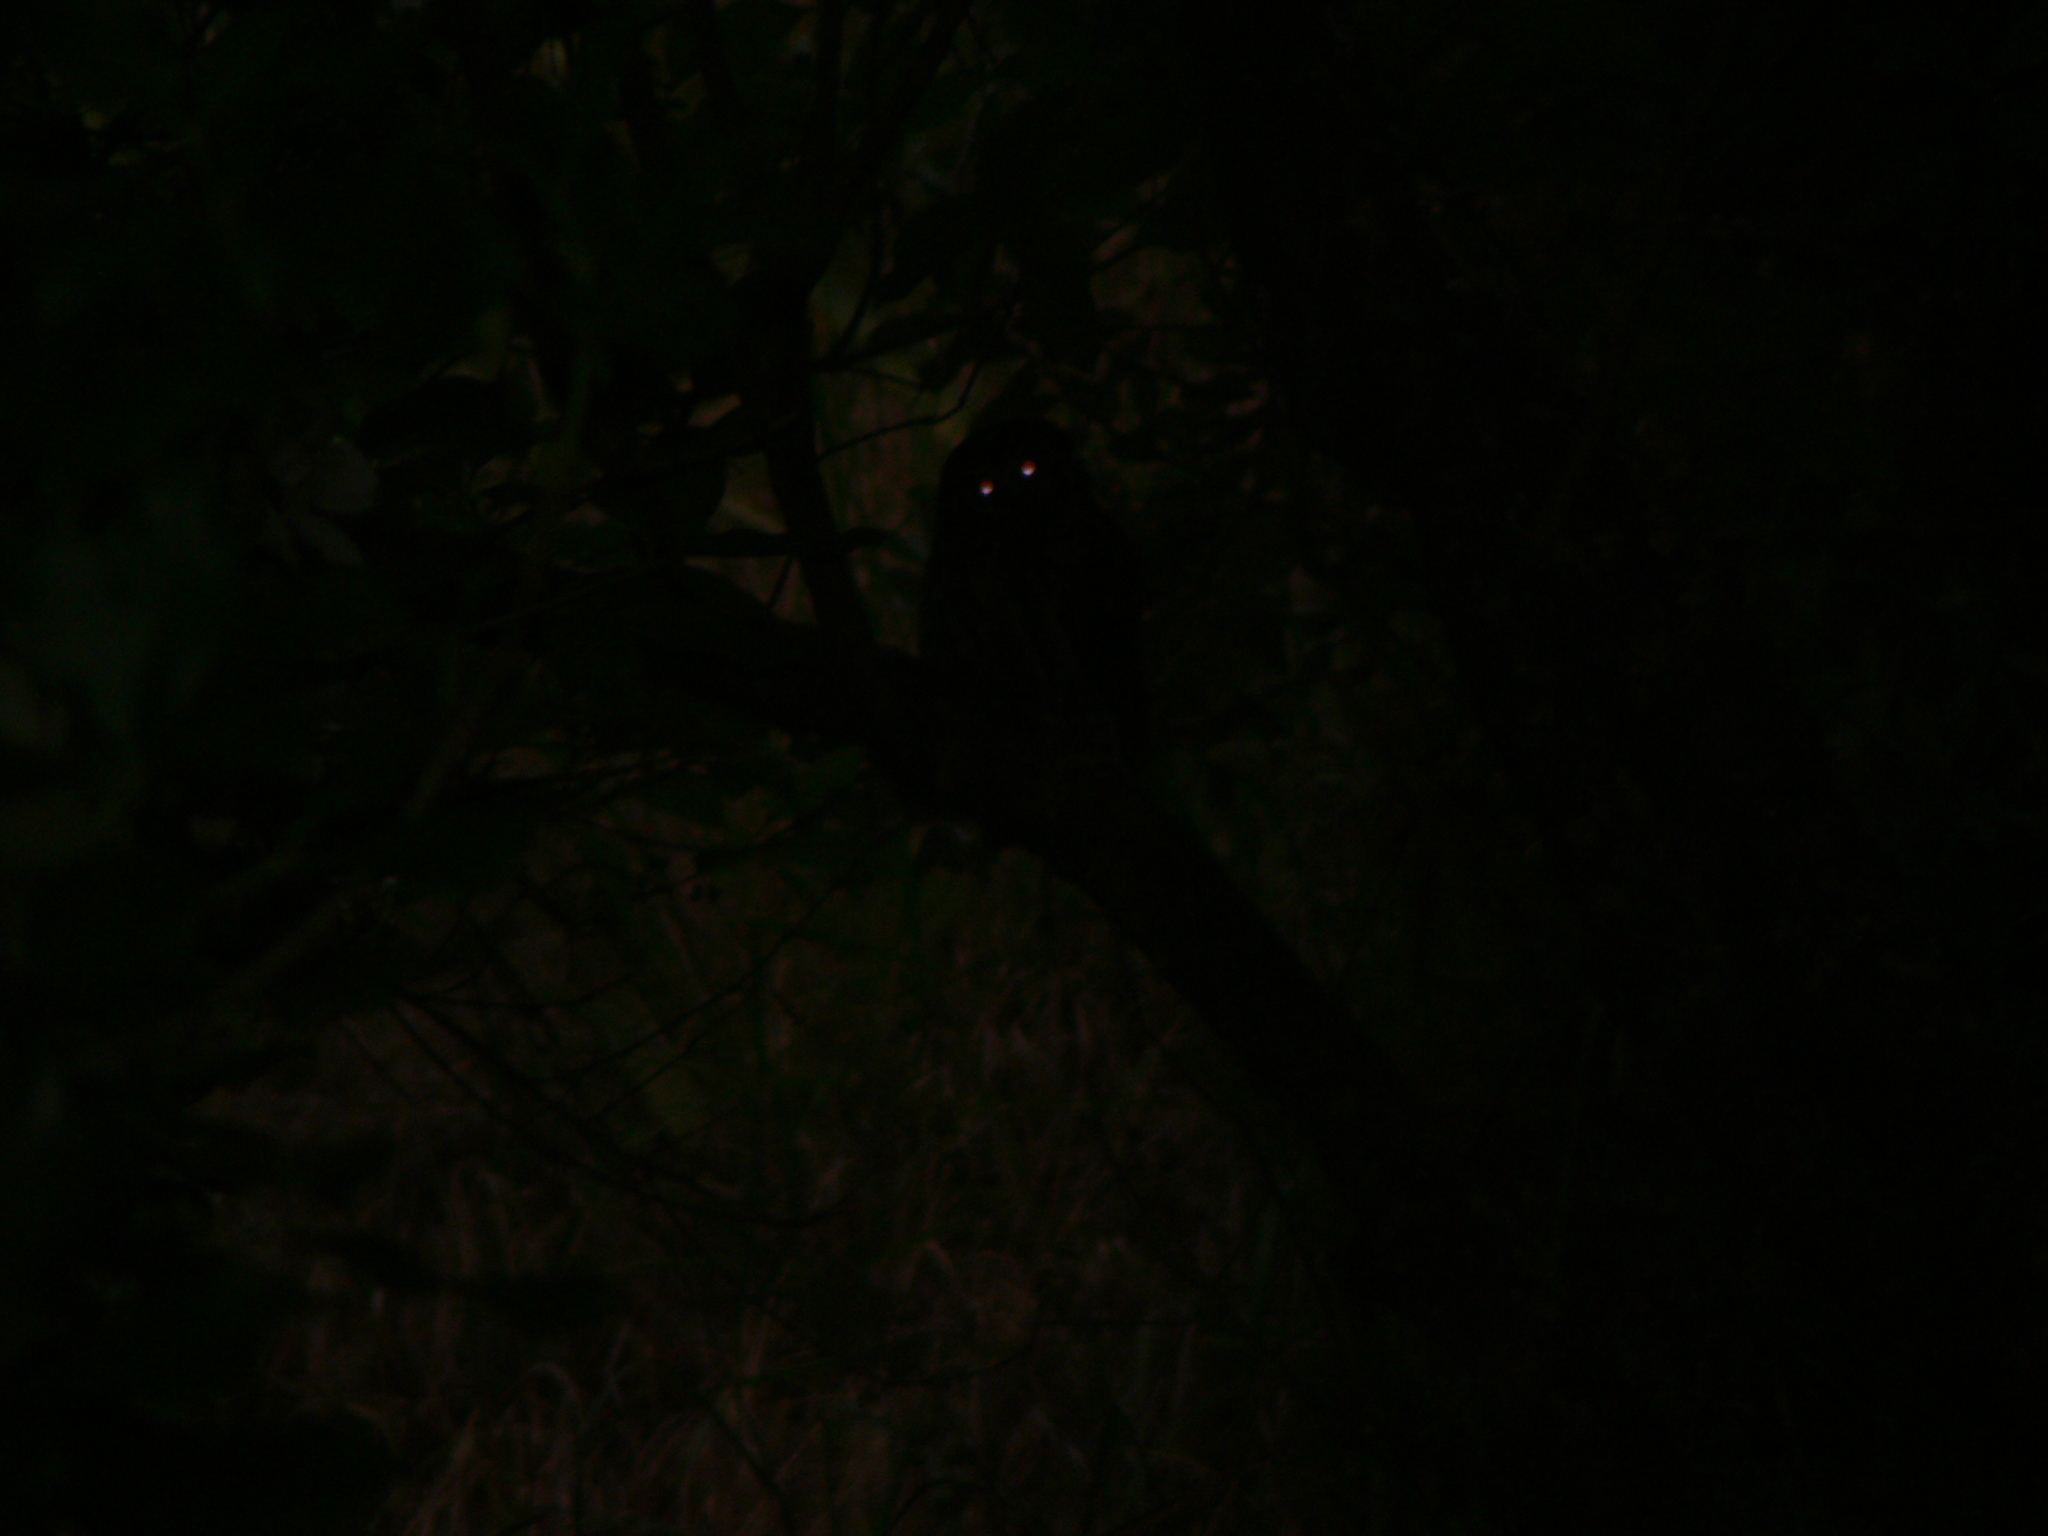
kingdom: Animalia
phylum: Chordata
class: Aves
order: Strigiformes
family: Strigidae
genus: Ninox
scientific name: Ninox novaeseelandiae
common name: Morepork
